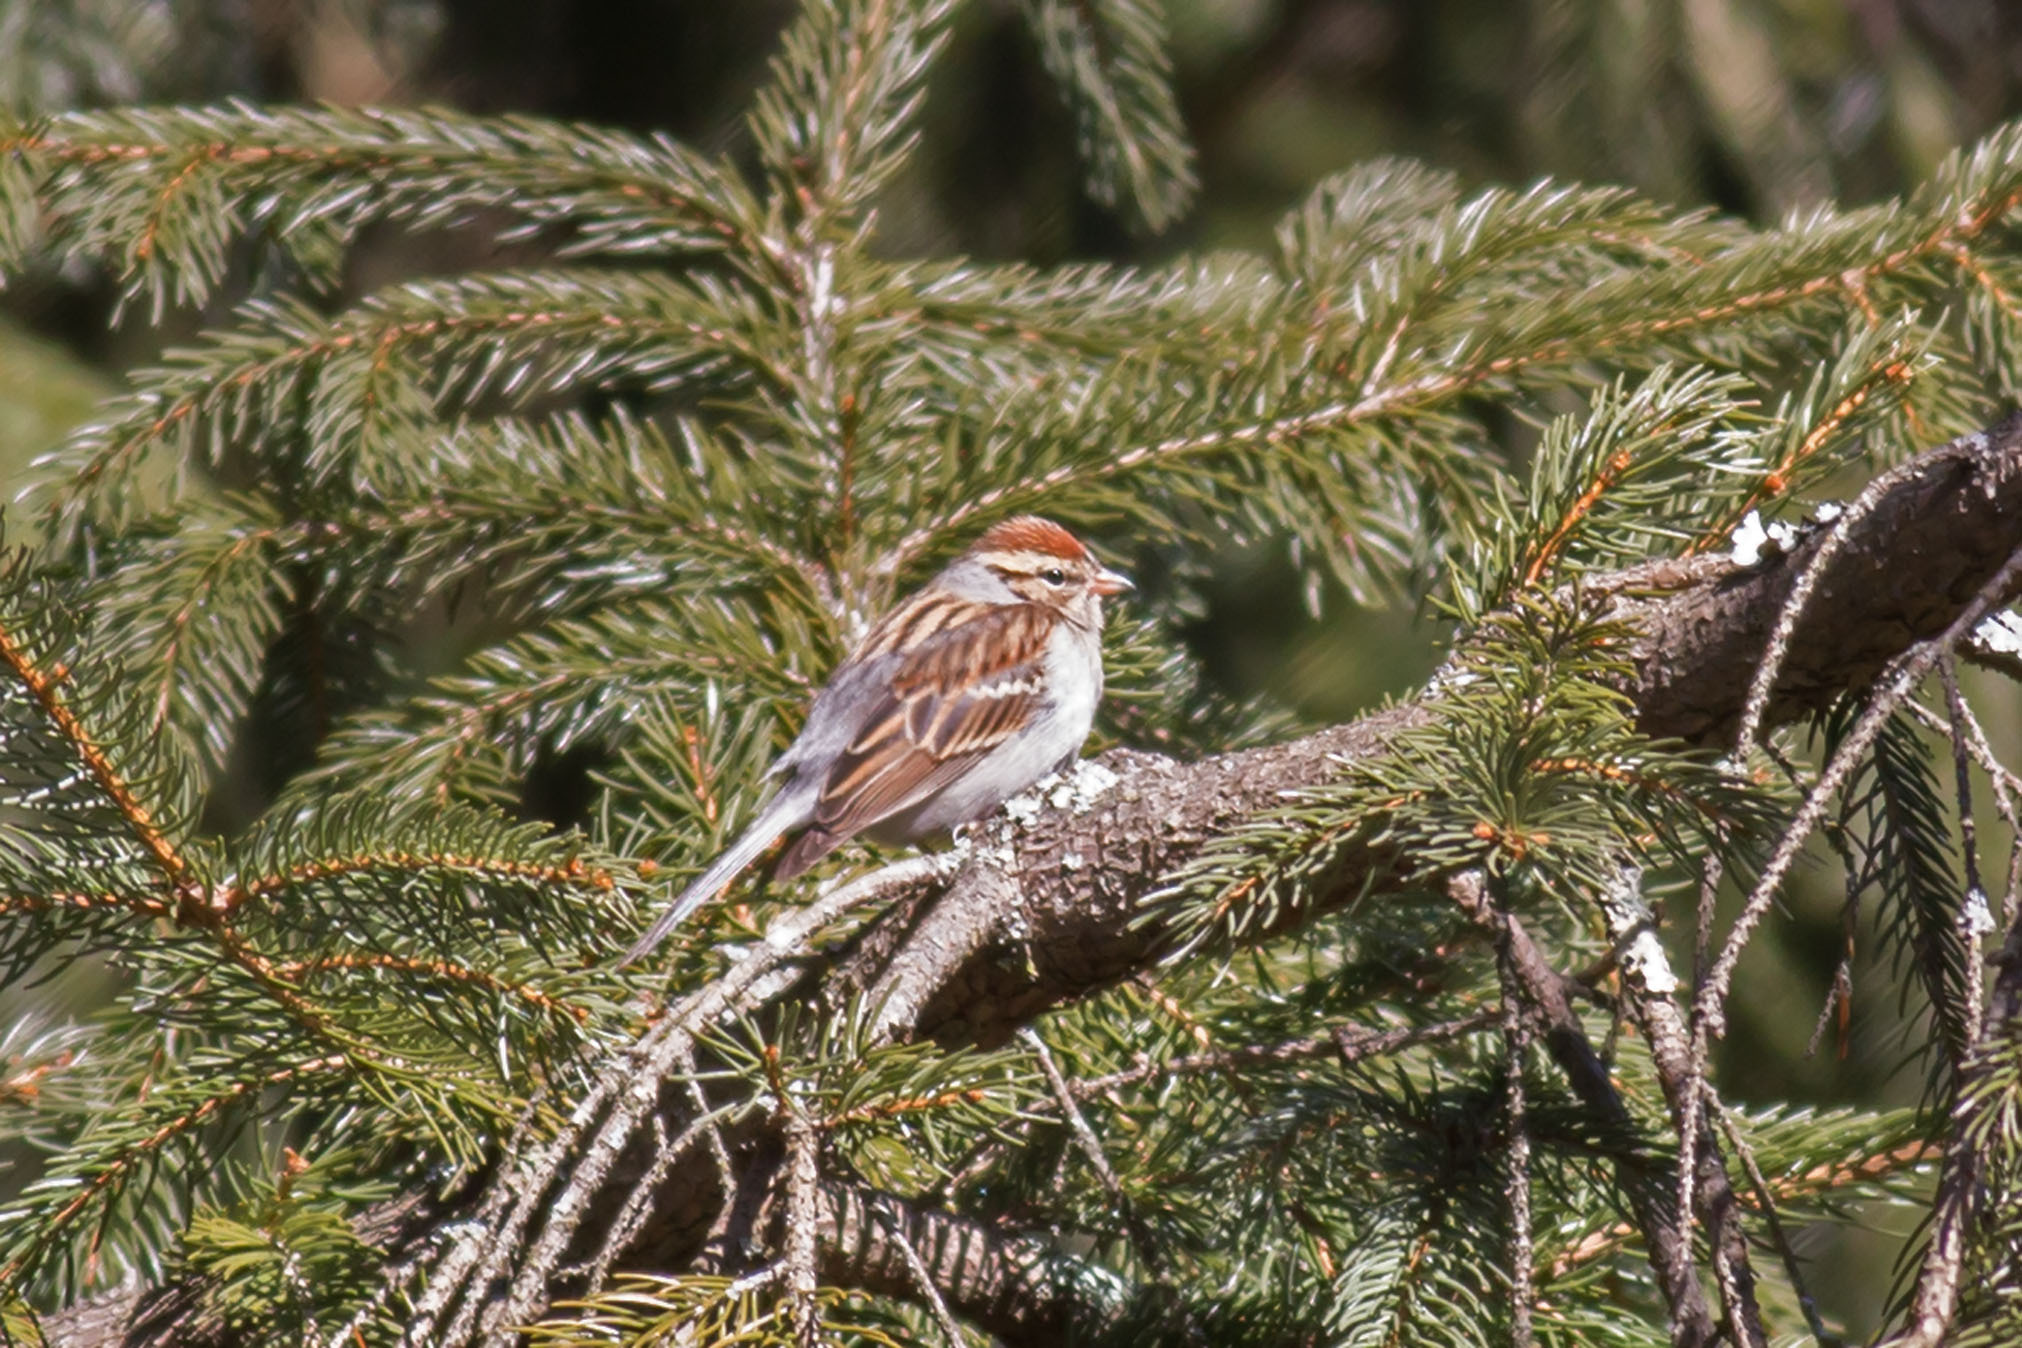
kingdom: Animalia
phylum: Chordata
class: Aves
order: Passeriformes
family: Passerellidae
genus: Spizella
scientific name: Spizella passerina
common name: Chipping sparrow
